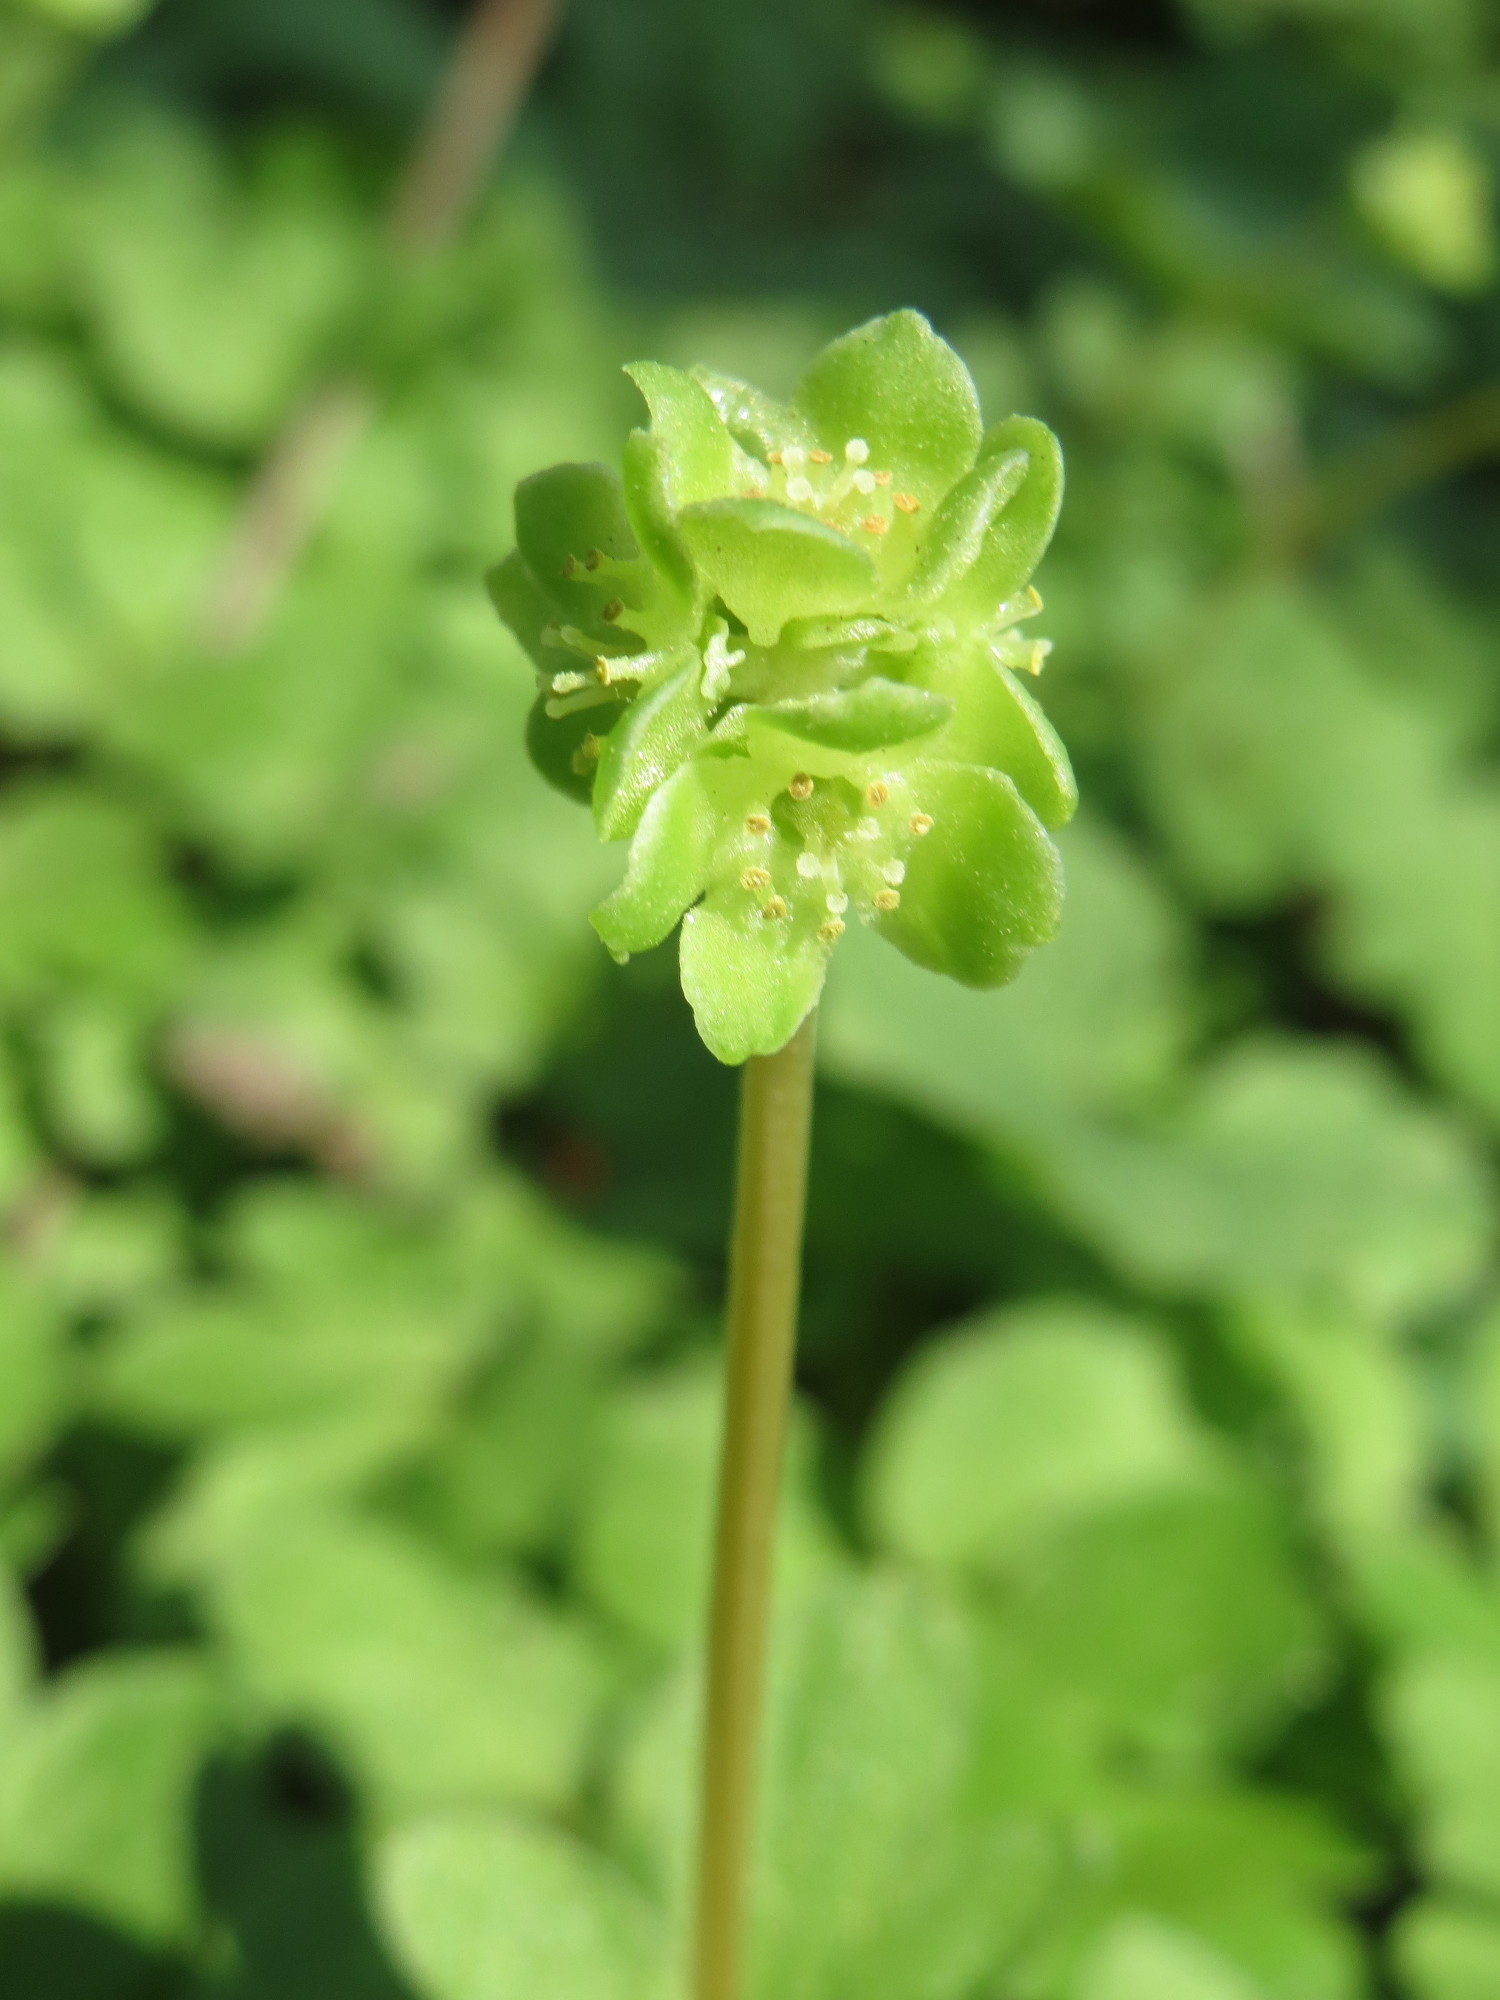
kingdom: Plantae
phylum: Tracheophyta
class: Magnoliopsida
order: Dipsacales
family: Viburnaceae
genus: Adoxa
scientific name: Adoxa moschatellina
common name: Moschatel
